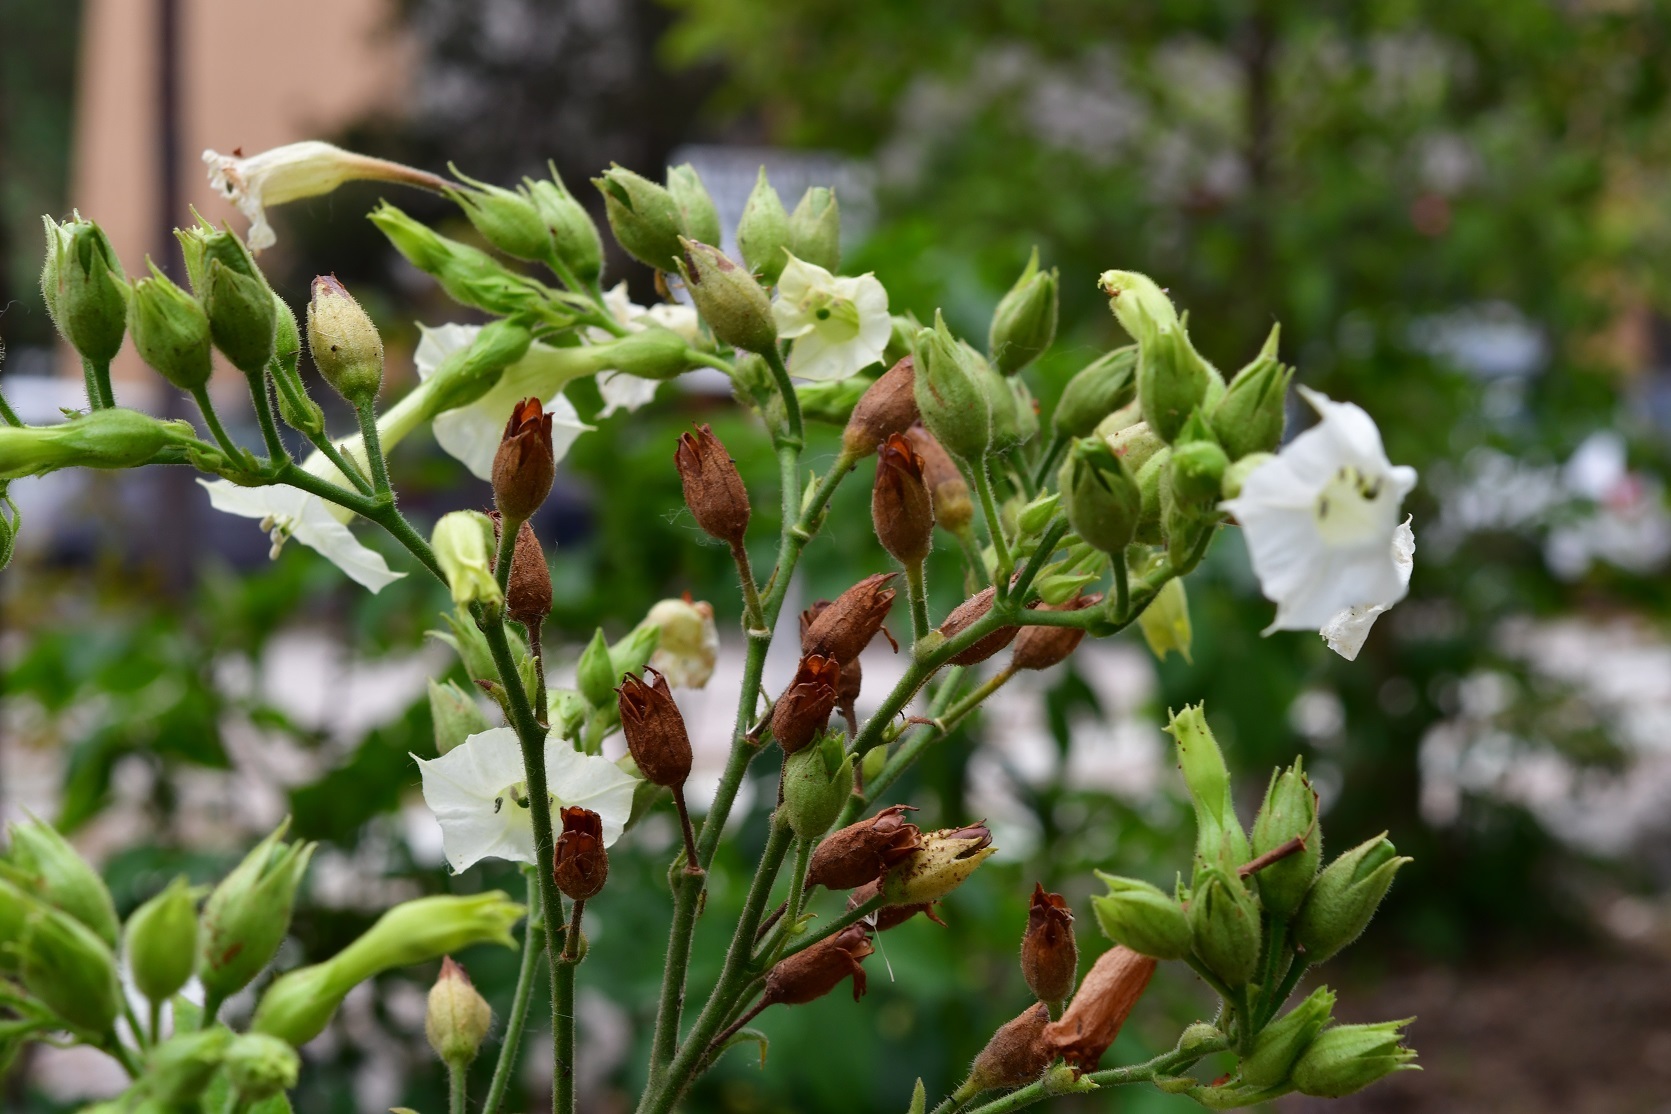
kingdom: Plantae
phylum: Tracheophyta
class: Magnoliopsida
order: Solanales
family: Solanaceae
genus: Nicotiana
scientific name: Nicotiana tabacum
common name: Tobacco
